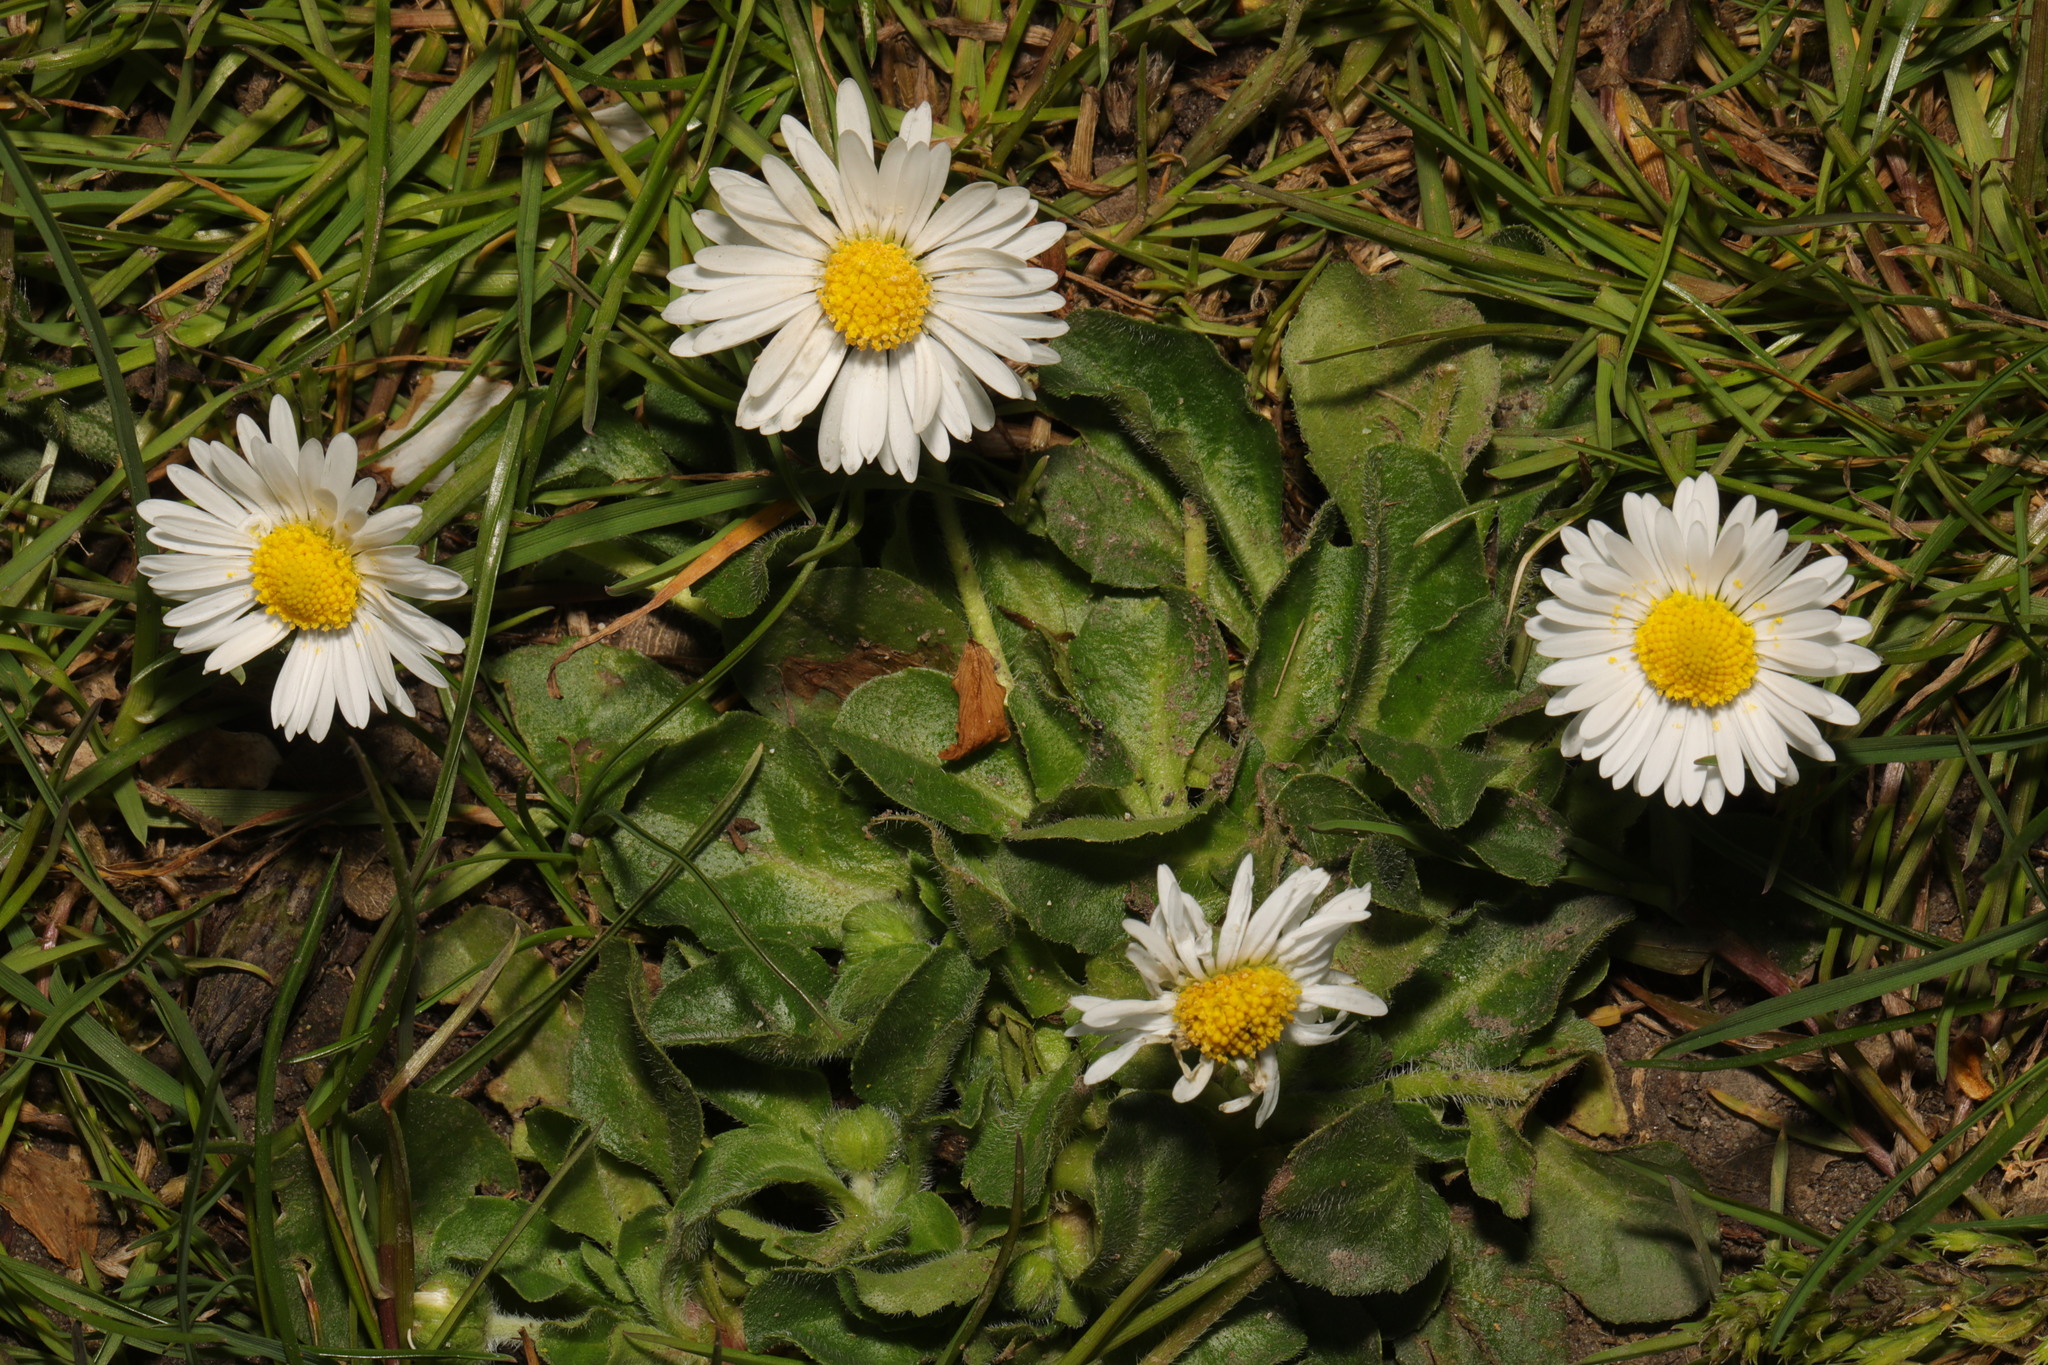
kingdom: Plantae
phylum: Tracheophyta
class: Magnoliopsida
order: Asterales
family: Asteraceae
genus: Bellis
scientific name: Bellis perennis
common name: Lawndaisy
